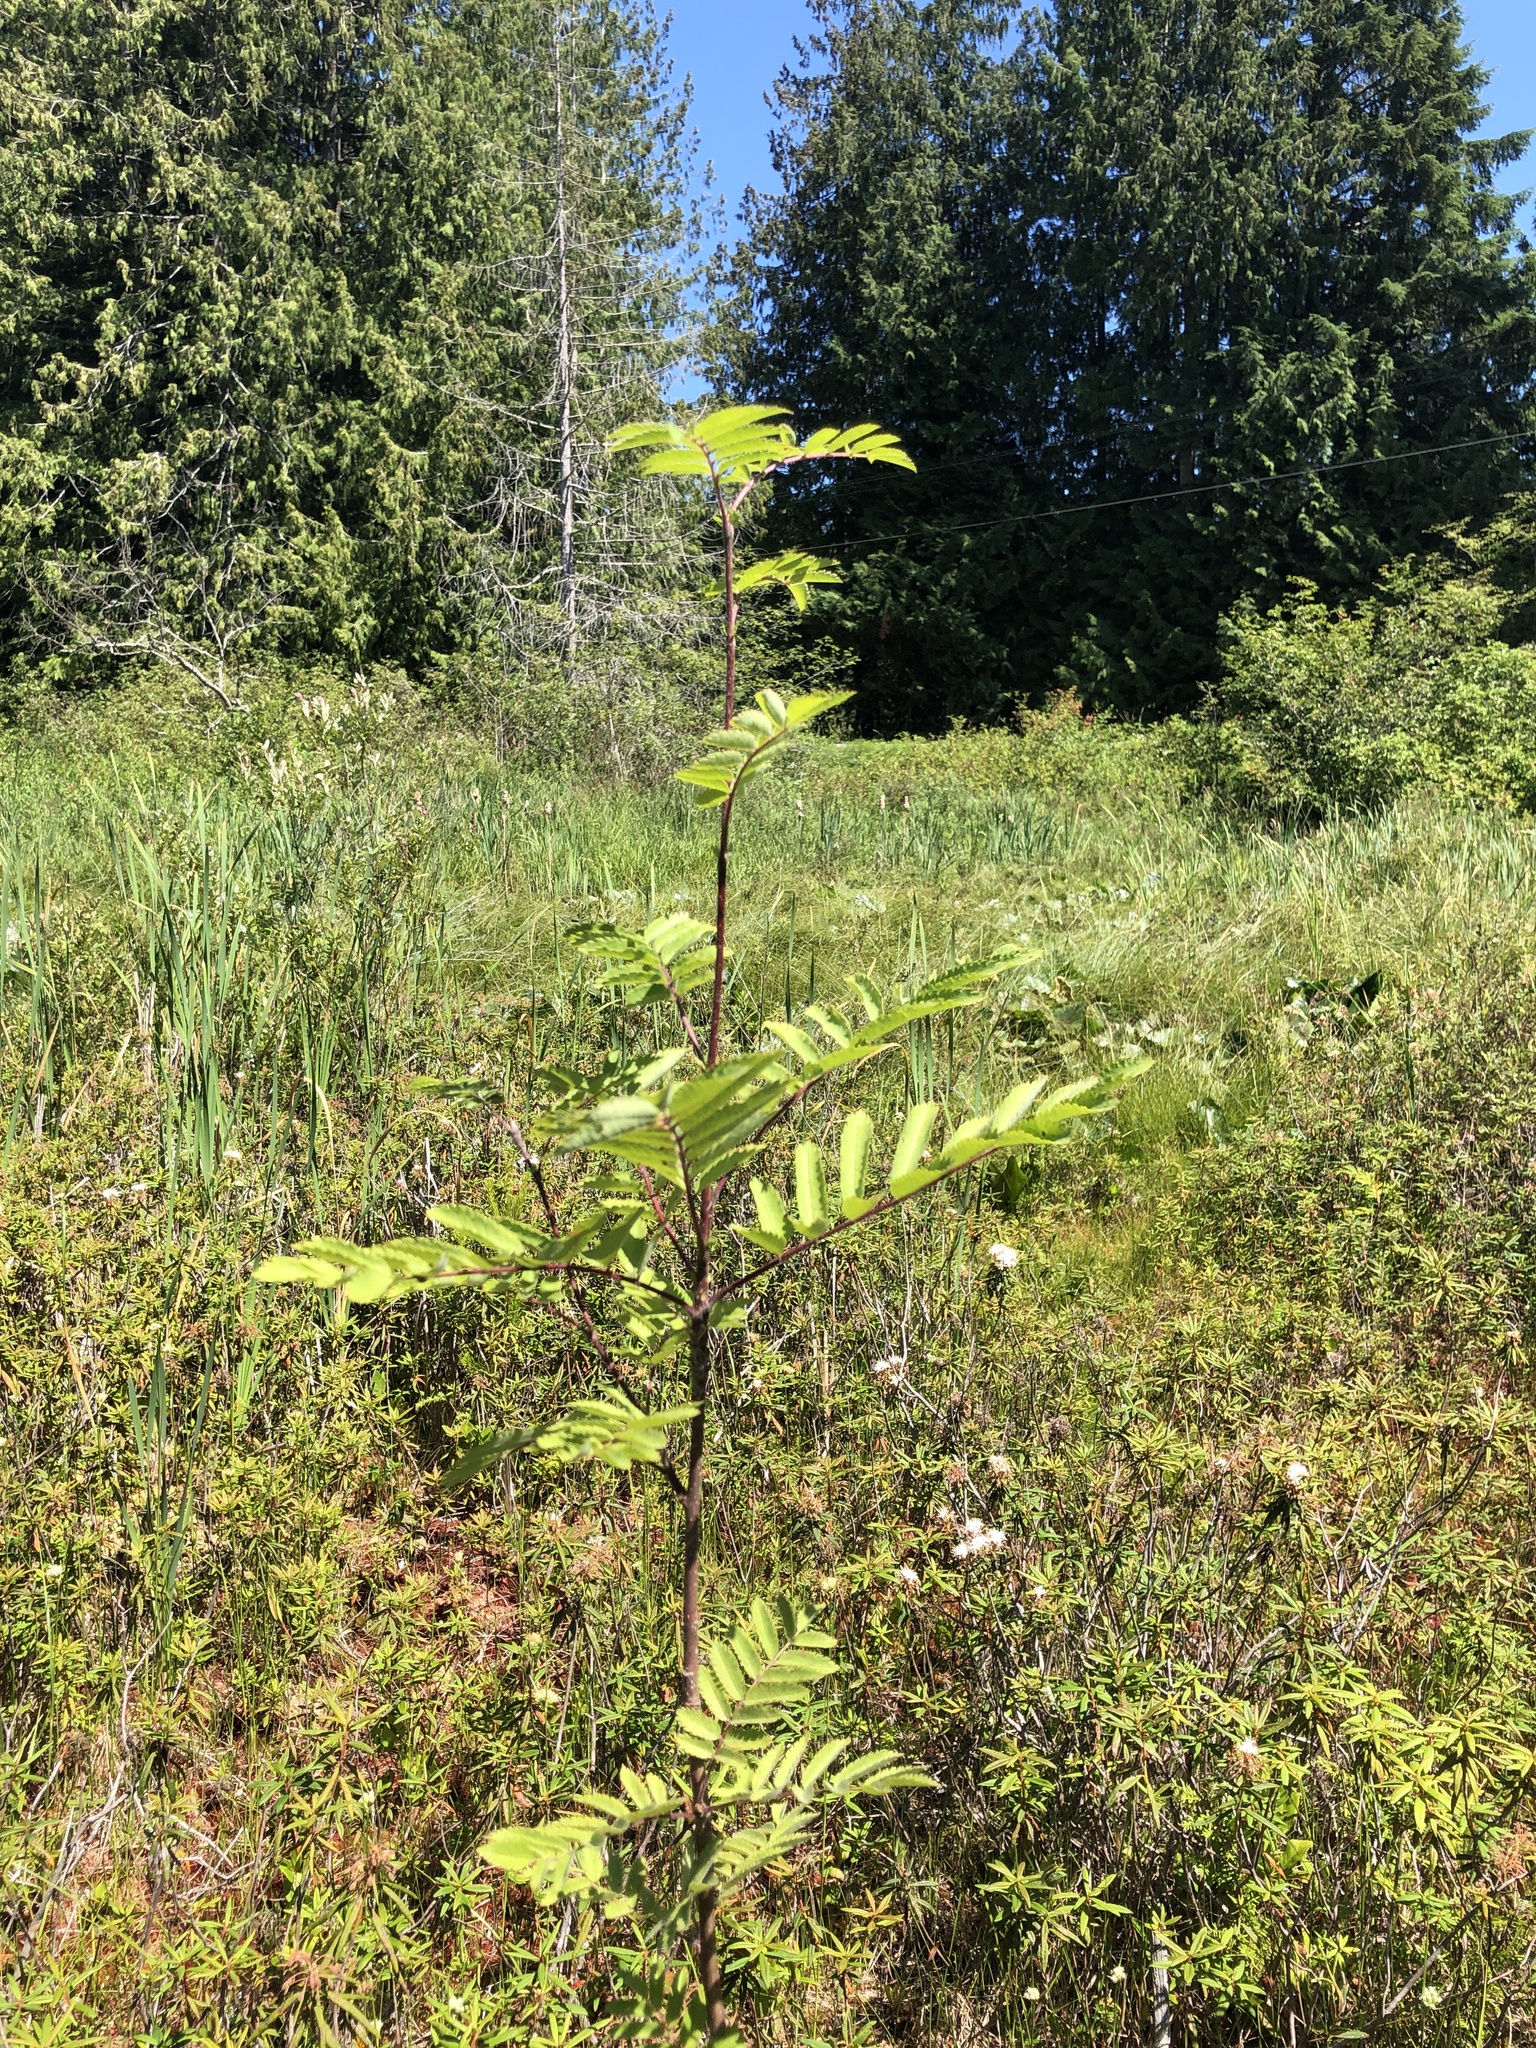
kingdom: Plantae
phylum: Tracheophyta
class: Magnoliopsida
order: Rosales
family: Rosaceae
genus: Sorbus
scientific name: Sorbus aucuparia
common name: Rowan
